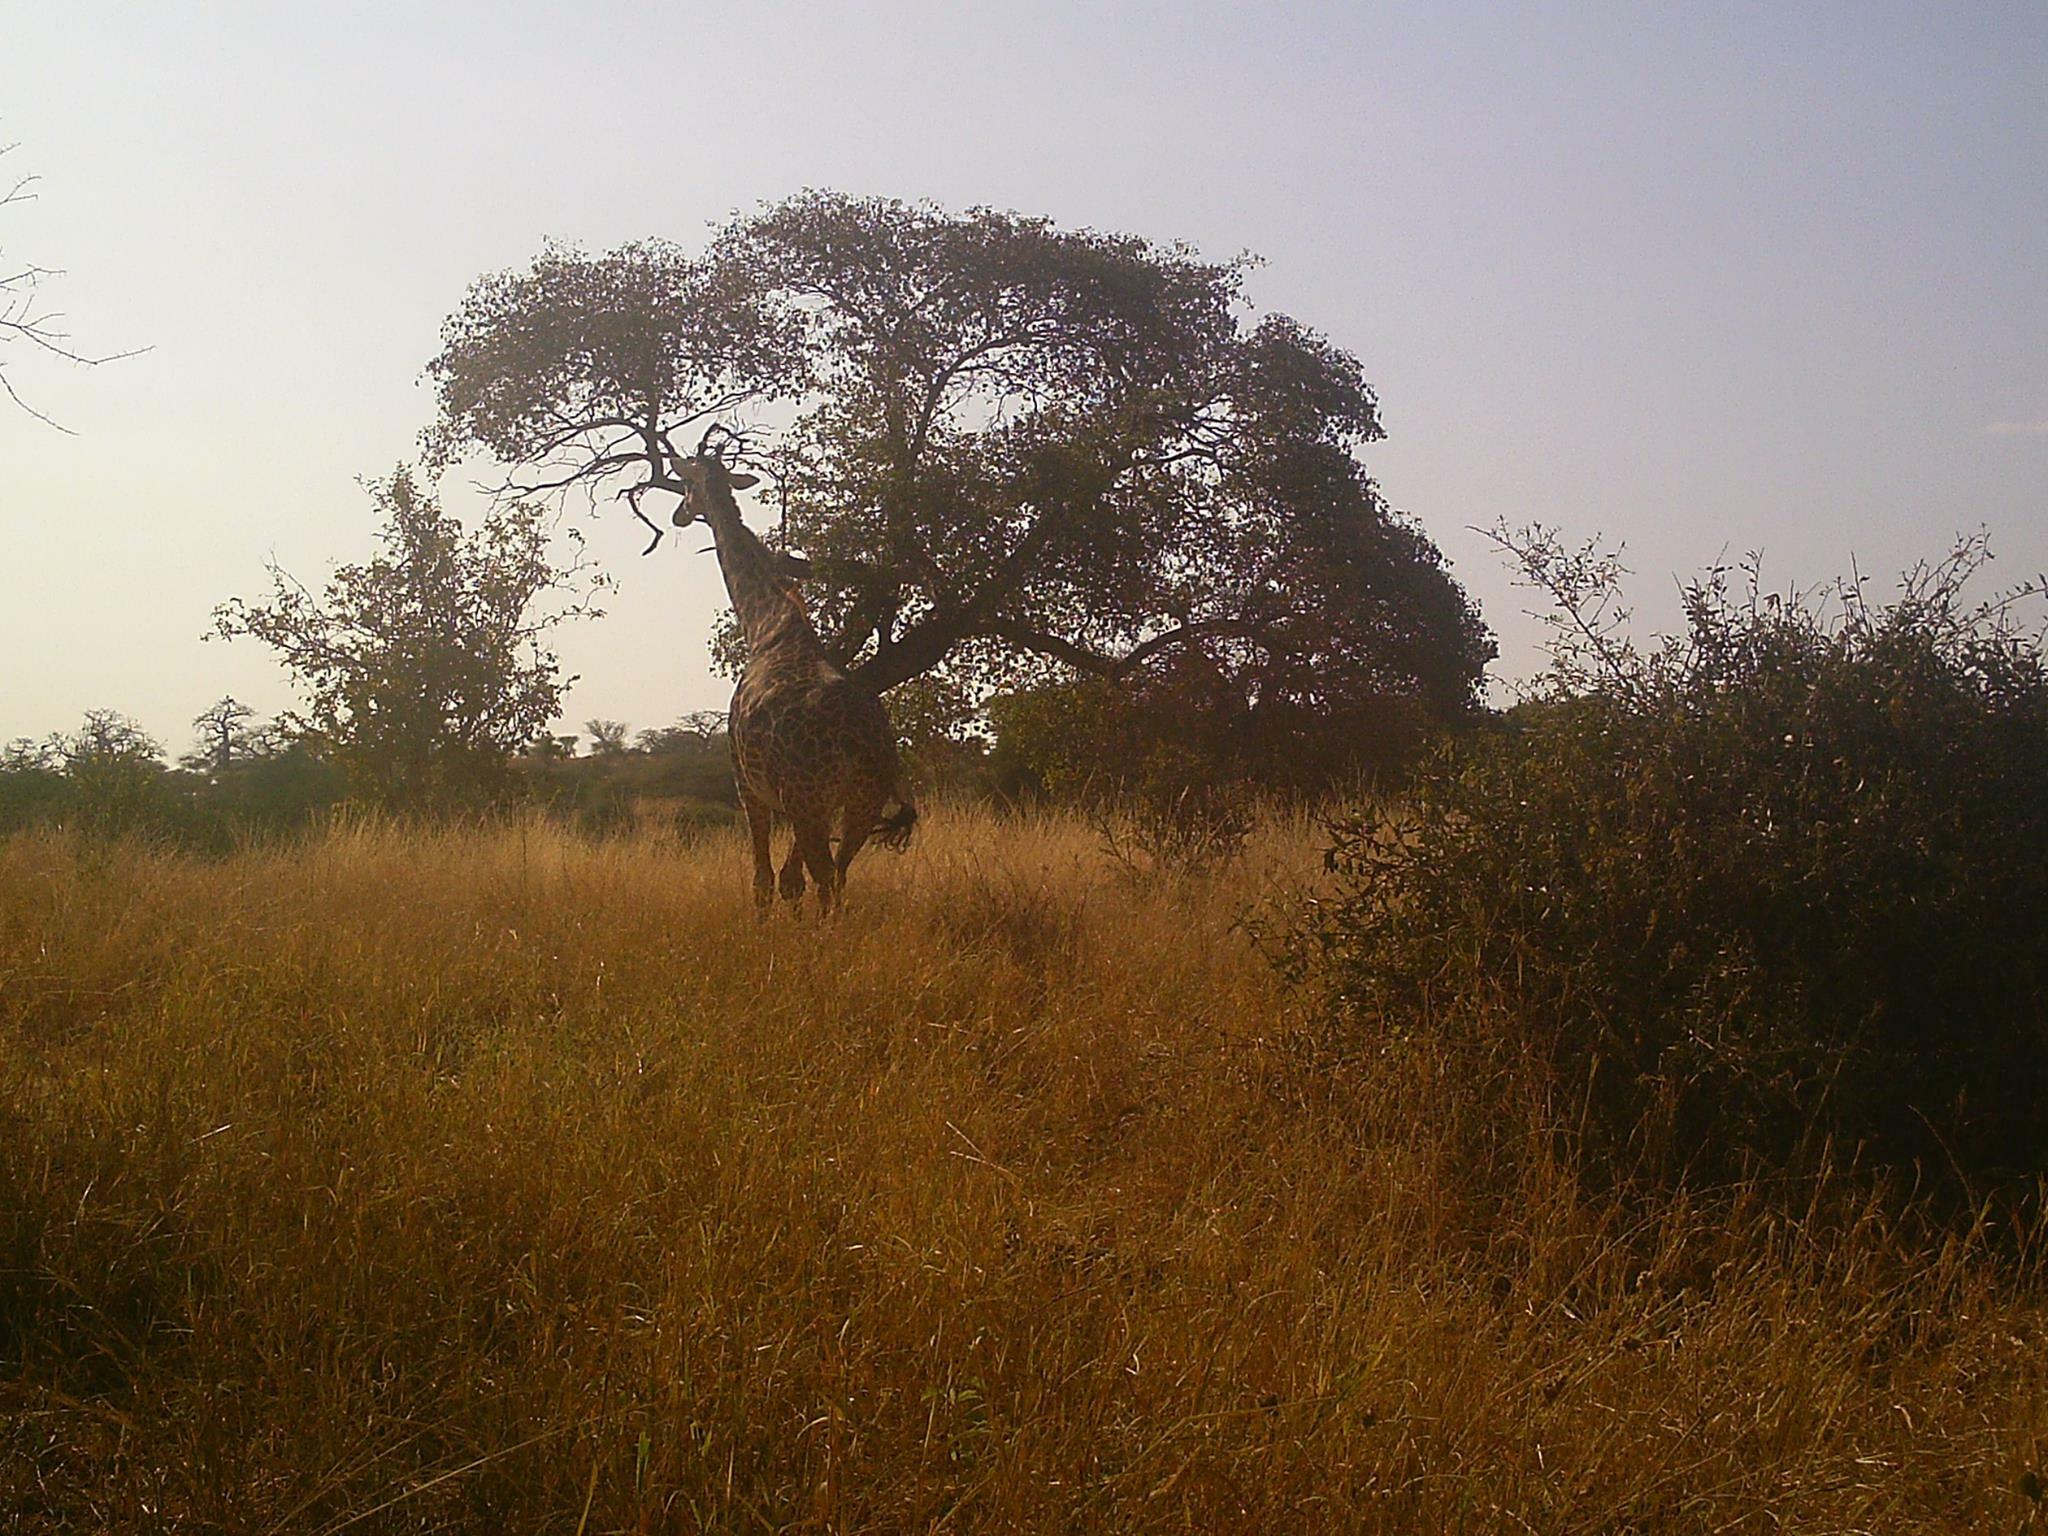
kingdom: Animalia
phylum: Chordata
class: Mammalia
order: Artiodactyla
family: Giraffidae
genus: Giraffa
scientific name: Giraffa tippelskirchi
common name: Masai giraffe
